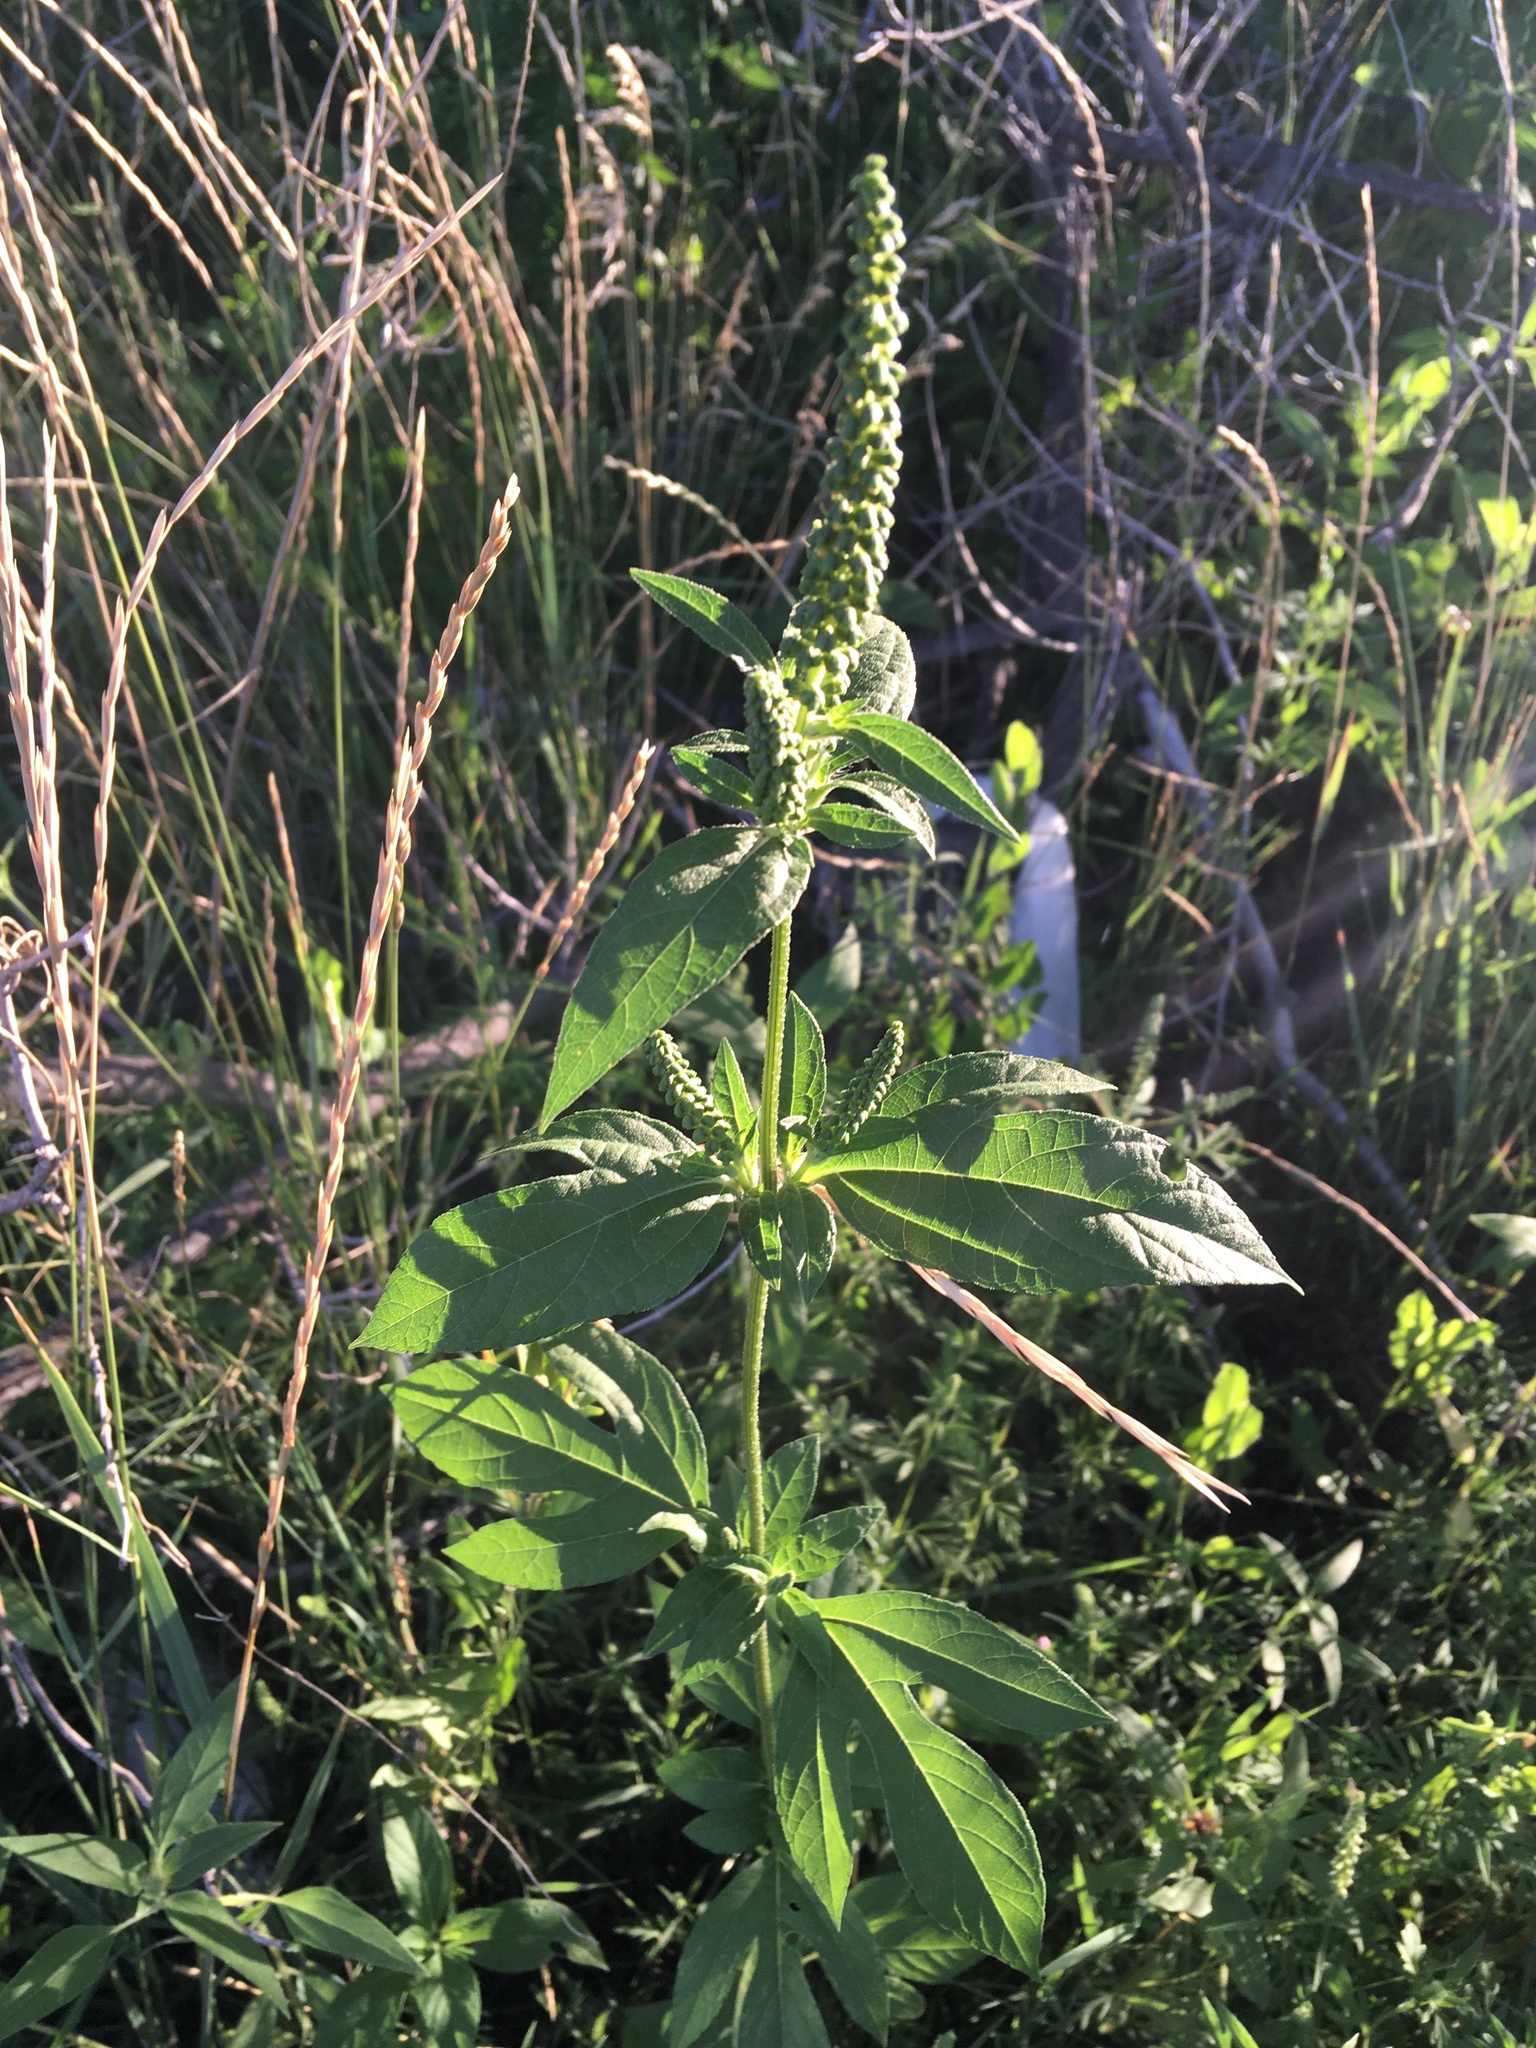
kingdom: Plantae
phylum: Tracheophyta
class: Magnoliopsida
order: Asterales
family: Asteraceae
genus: Ambrosia
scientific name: Ambrosia trifida
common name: Giant ragweed
